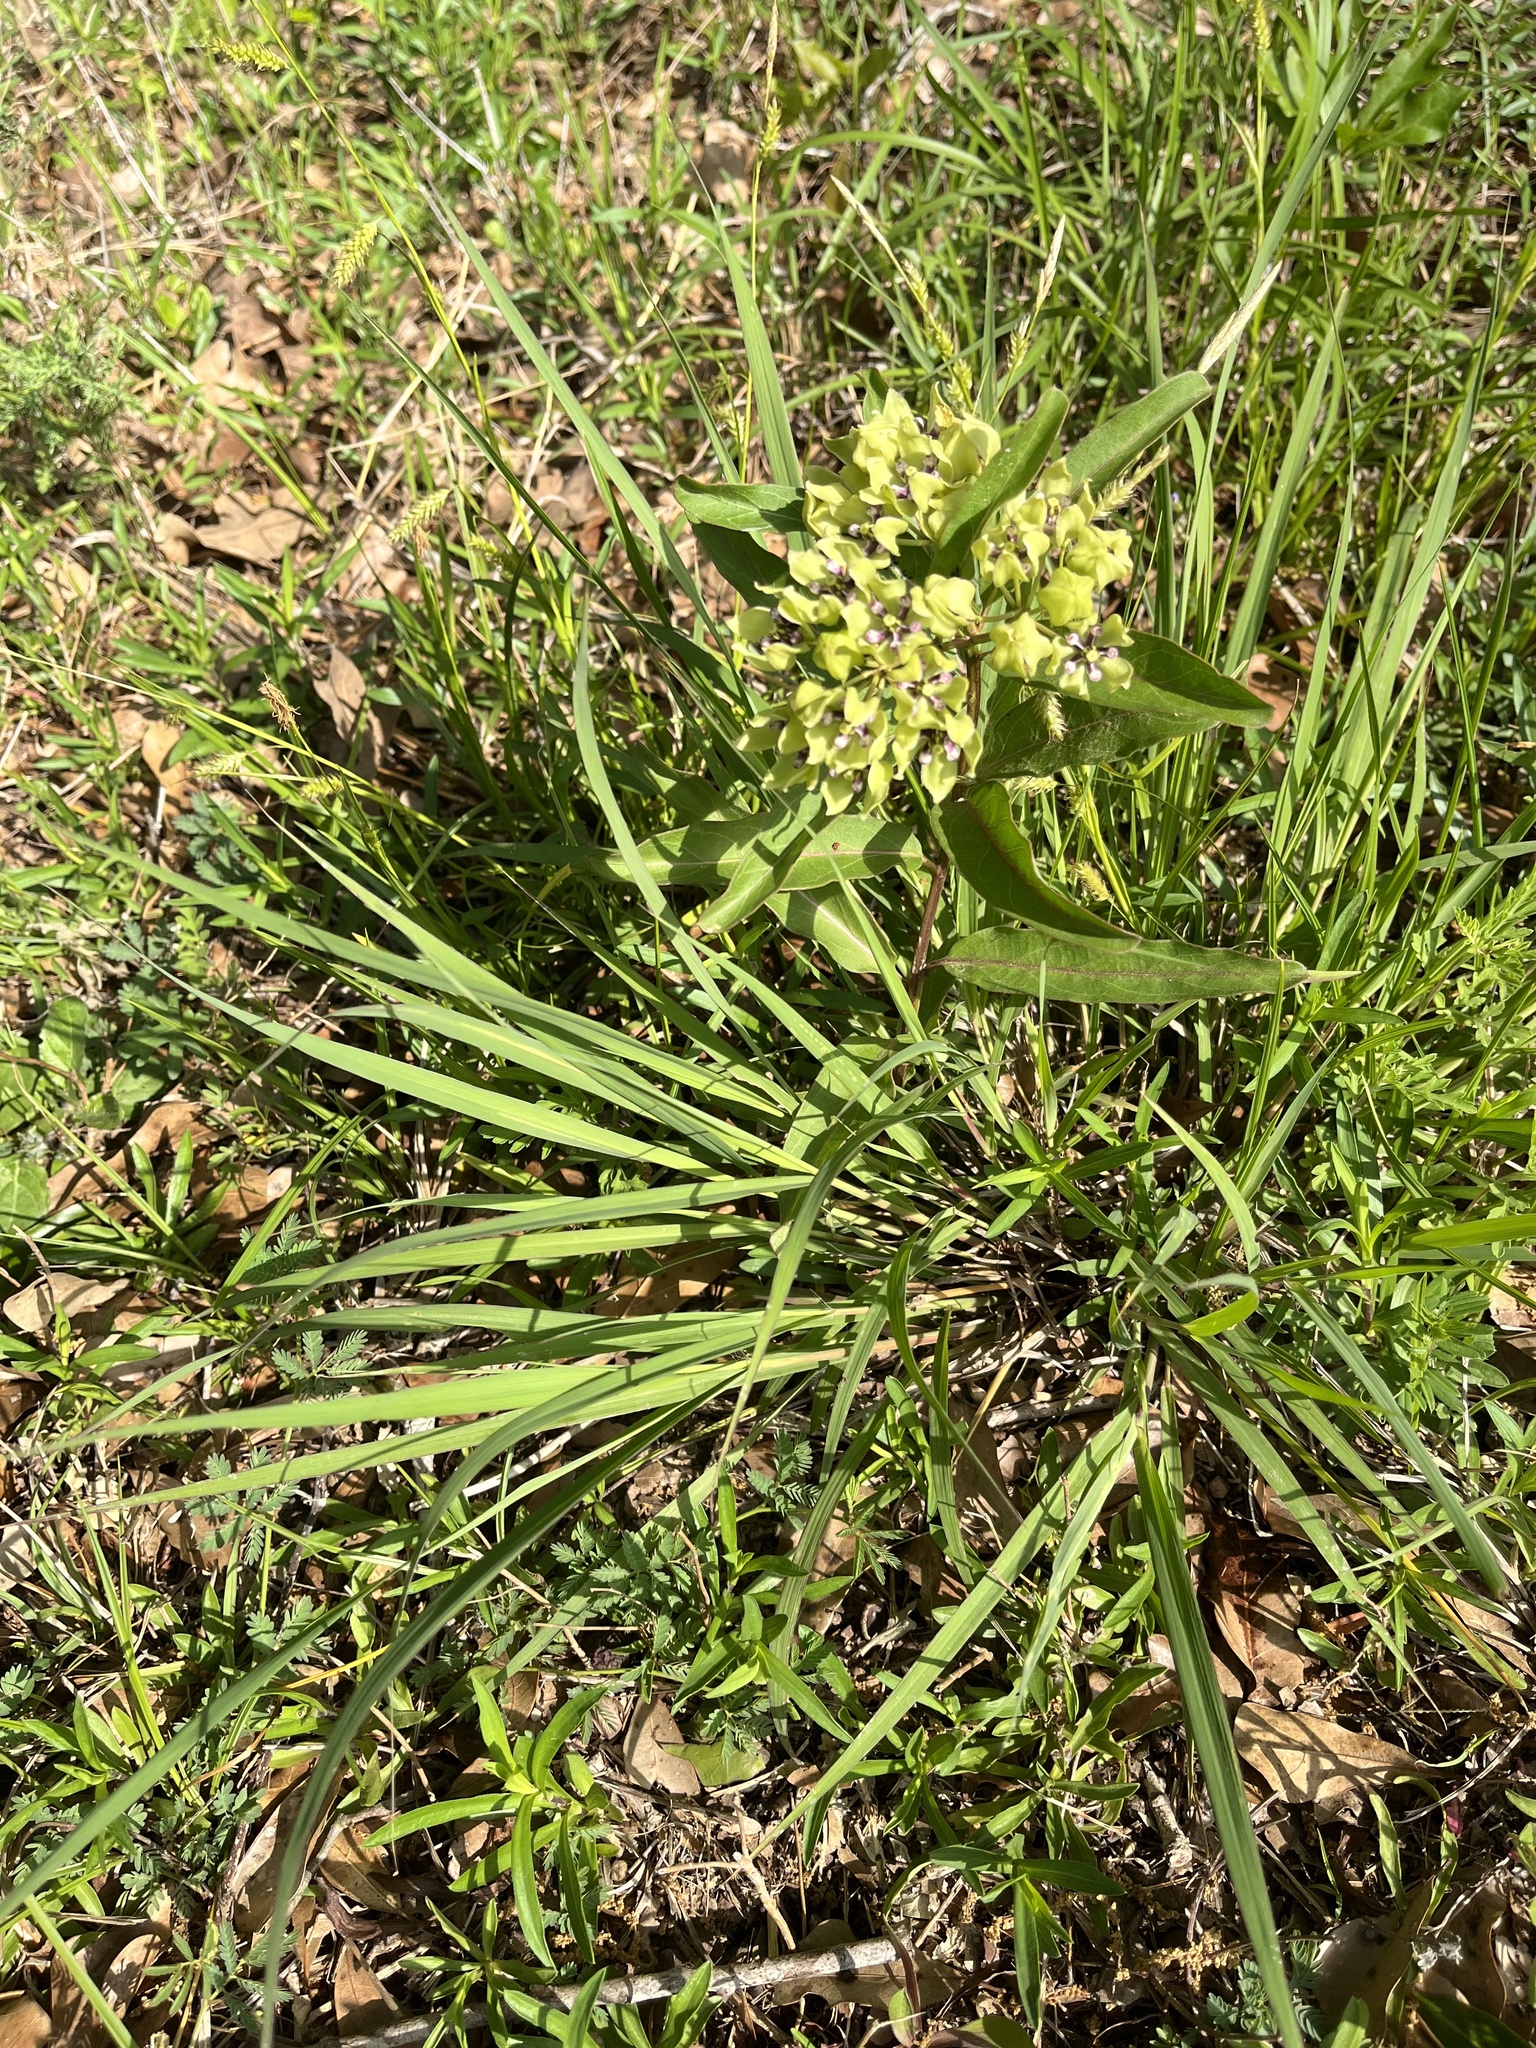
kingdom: Plantae
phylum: Tracheophyta
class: Magnoliopsida
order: Gentianales
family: Apocynaceae
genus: Asclepias
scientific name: Asclepias viridis
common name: Antelope-horns
